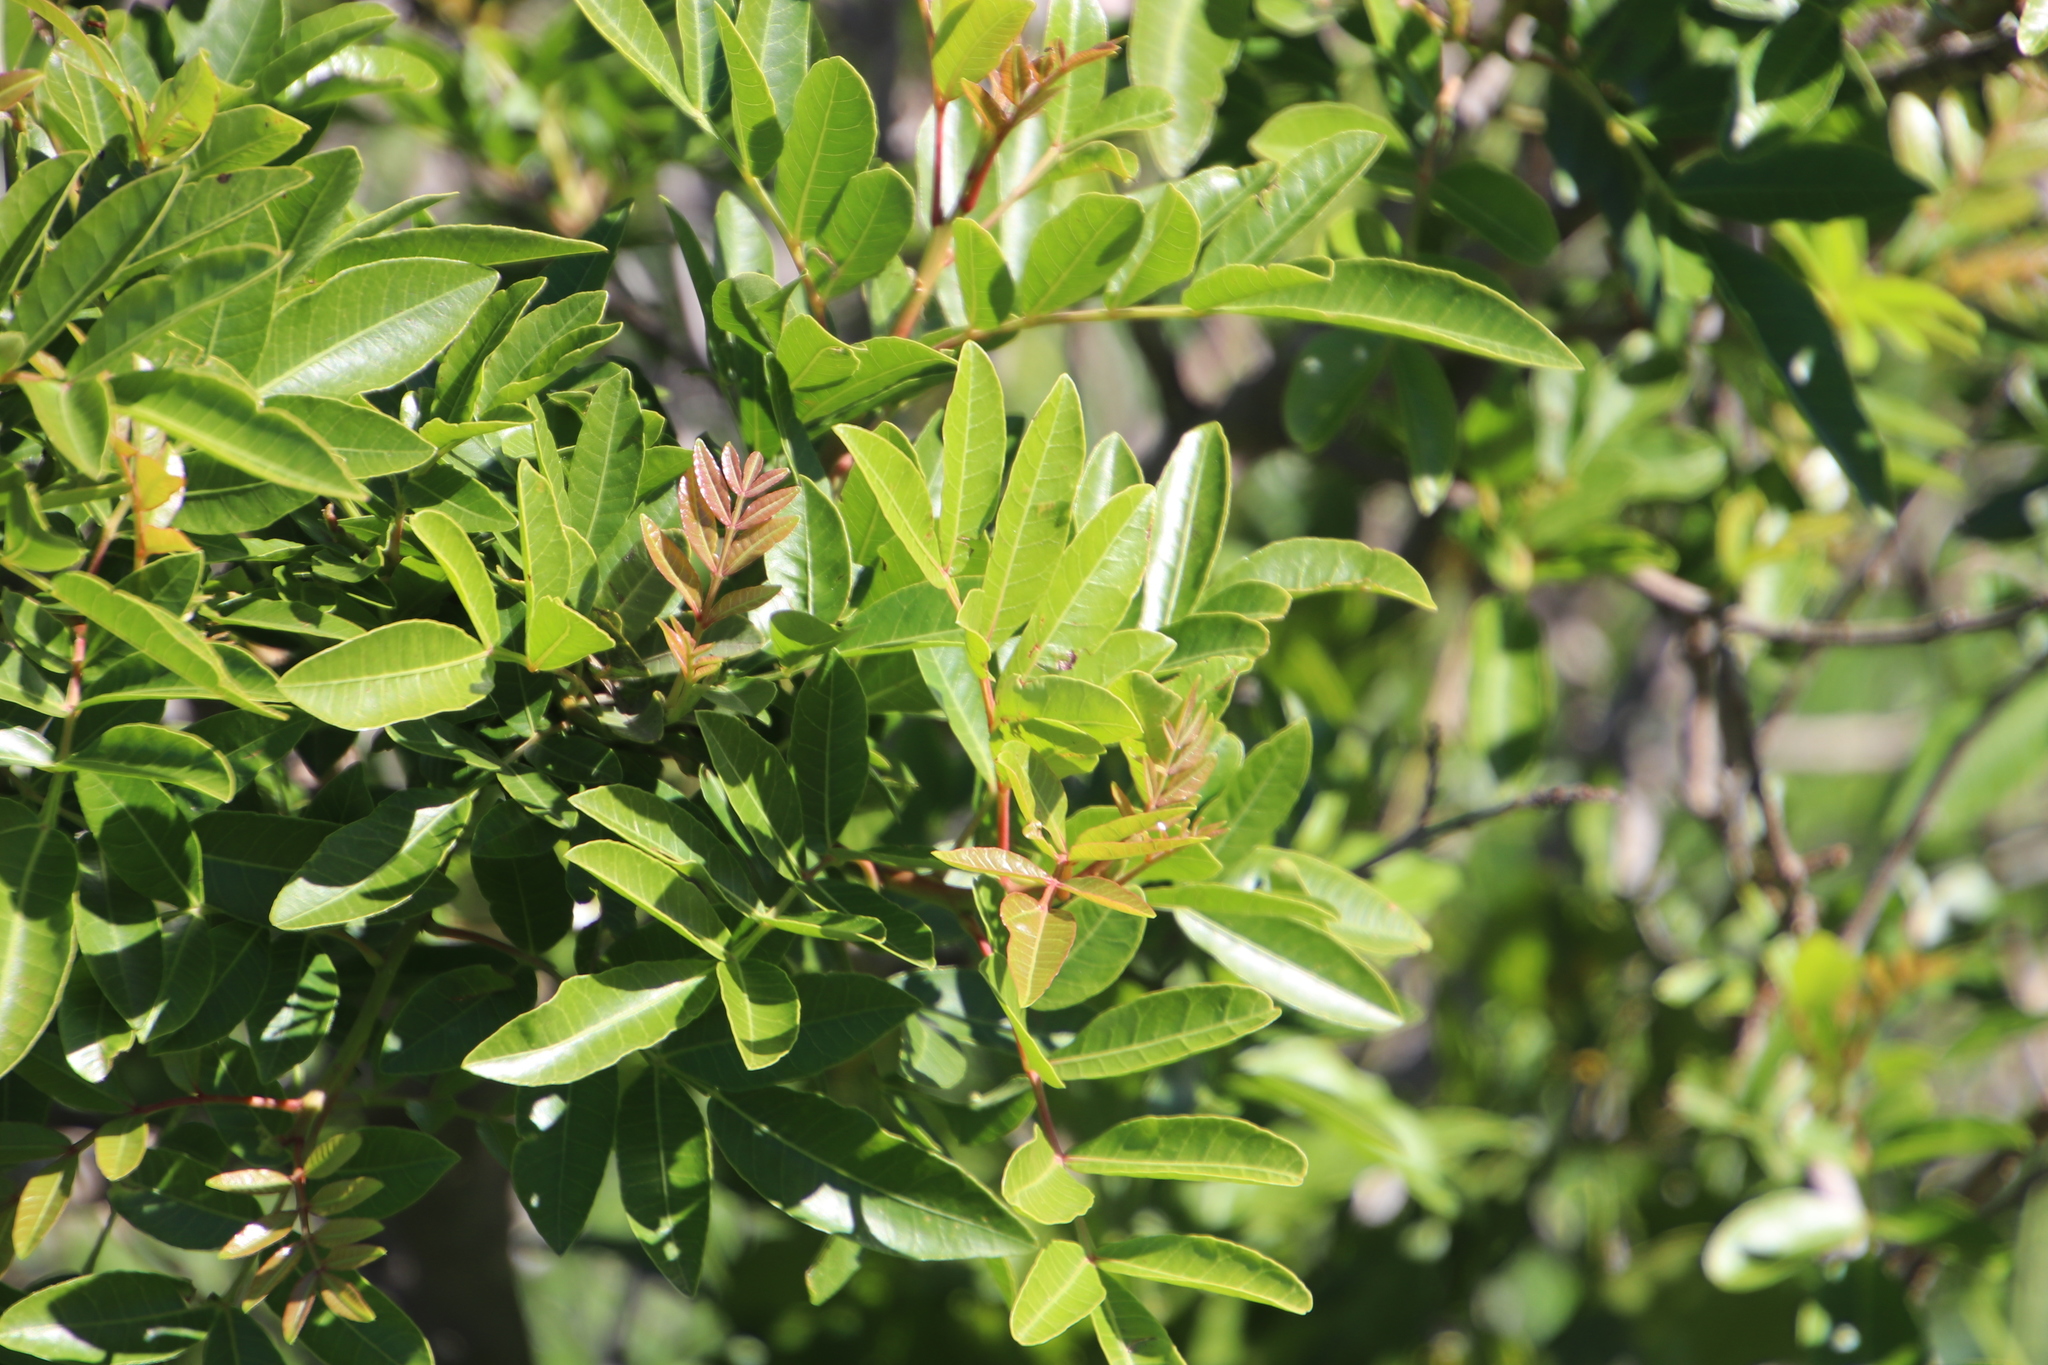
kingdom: Plantae
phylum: Tracheophyta
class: Magnoliopsida
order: Sapindales
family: Anacardiaceae
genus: Schinus
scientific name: Schinus terebinthifolia
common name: Brazilian peppertree
